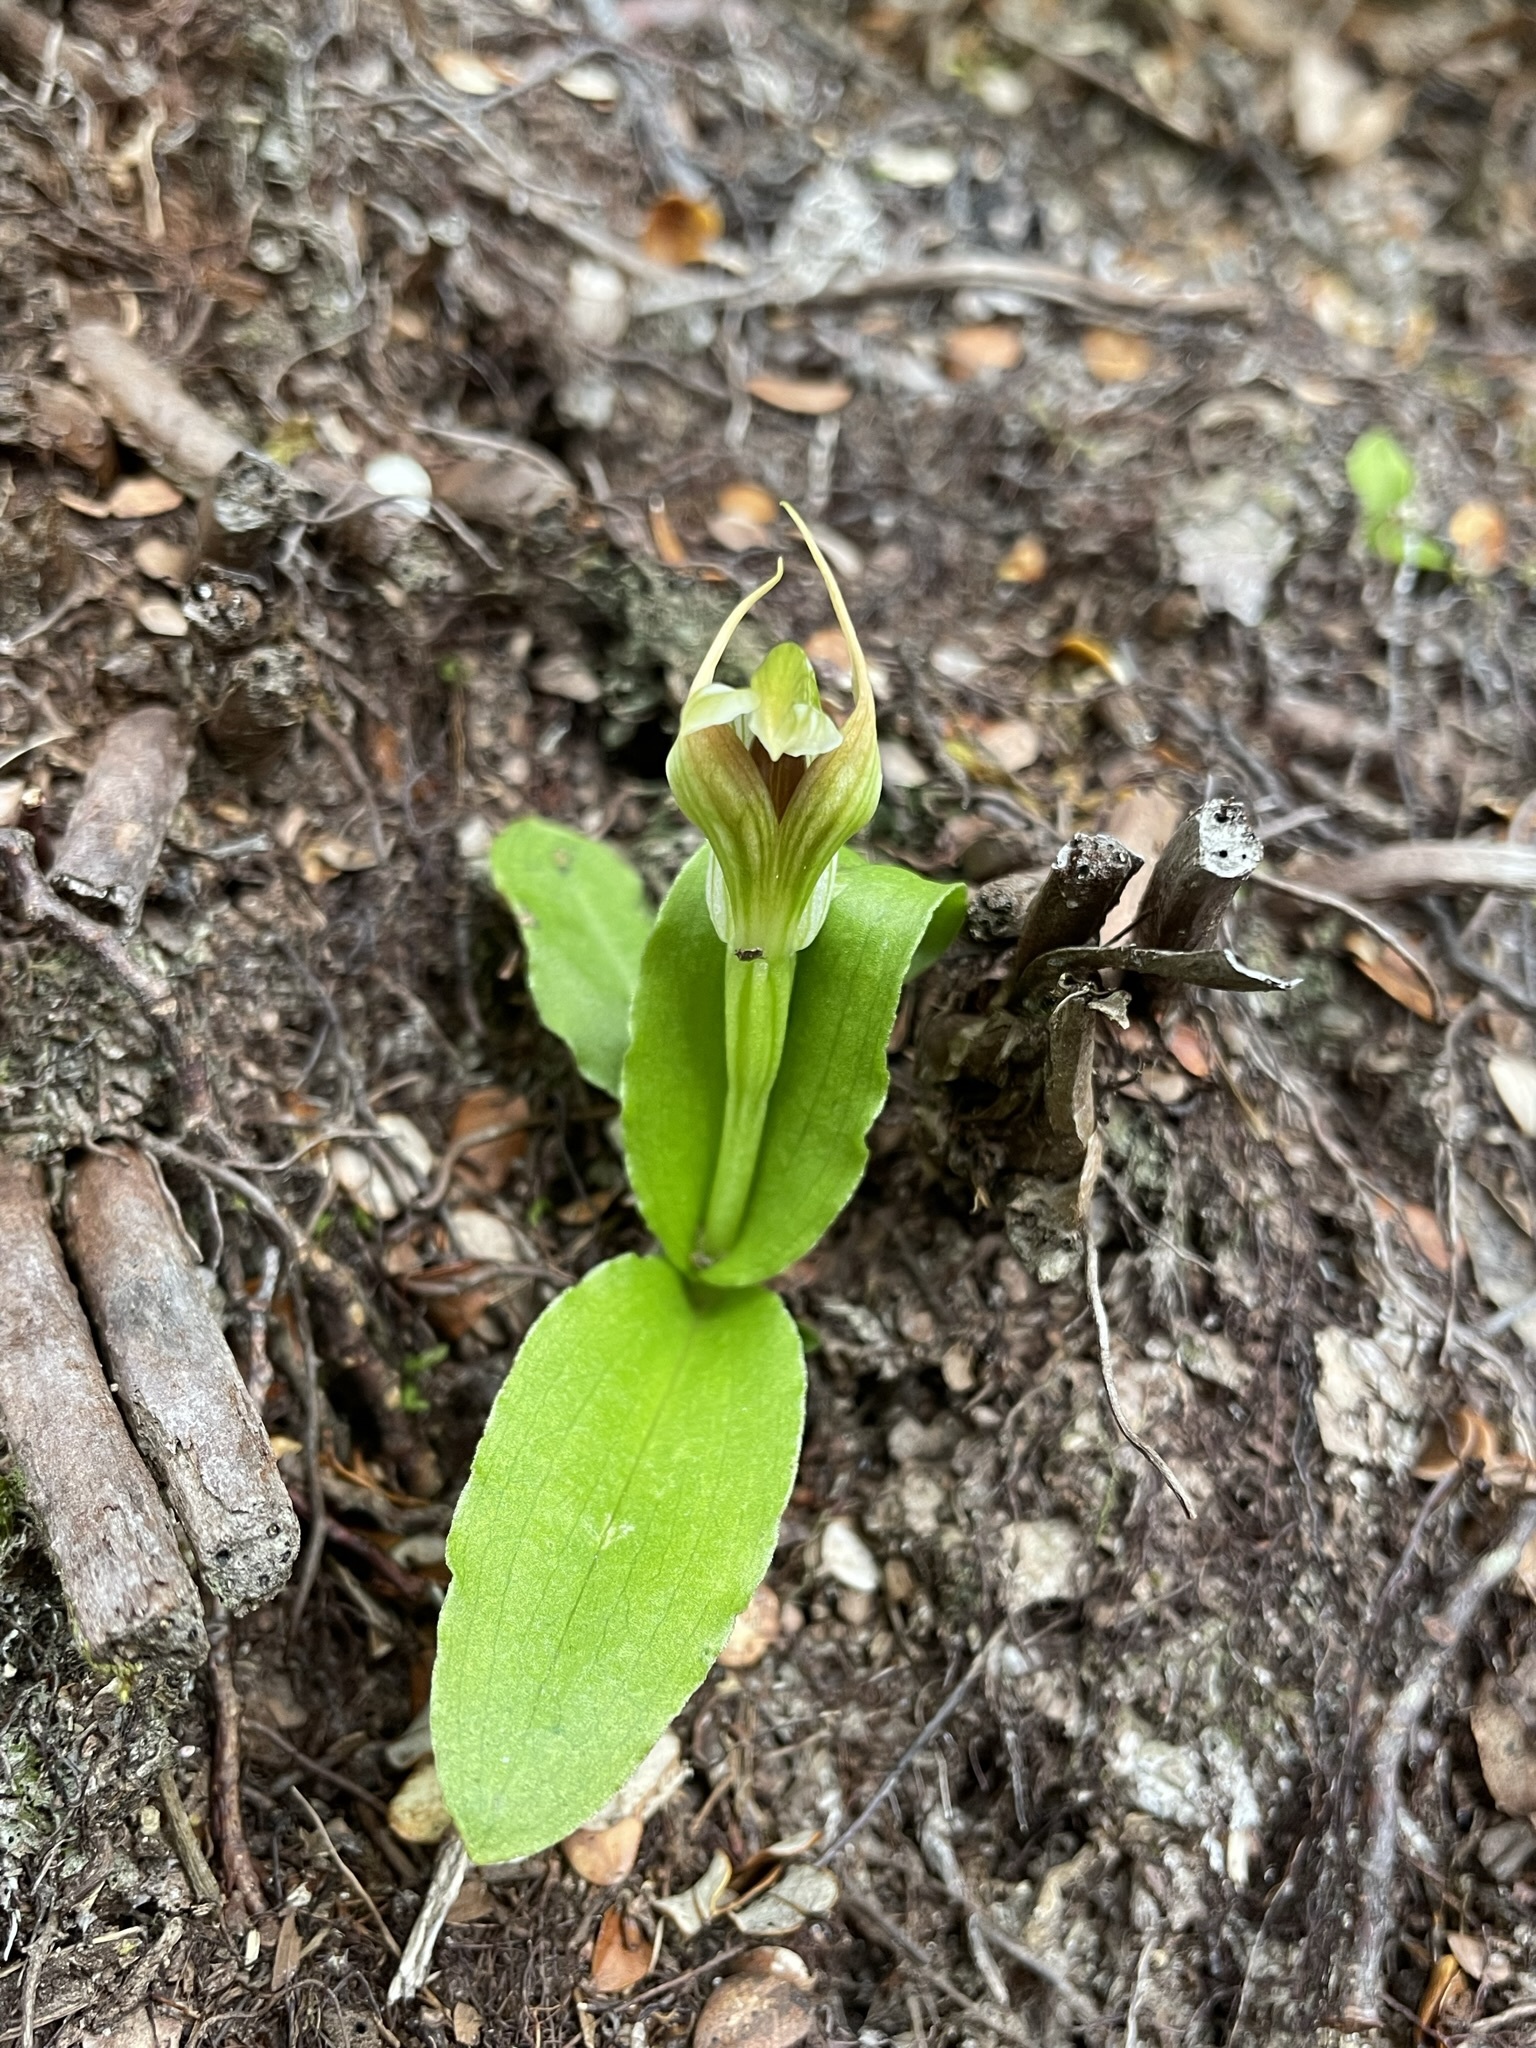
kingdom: Plantae
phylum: Tracheophyta
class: Liliopsida
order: Asparagales
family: Orchidaceae
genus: Pterostylis
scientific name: Pterostylis venosa
